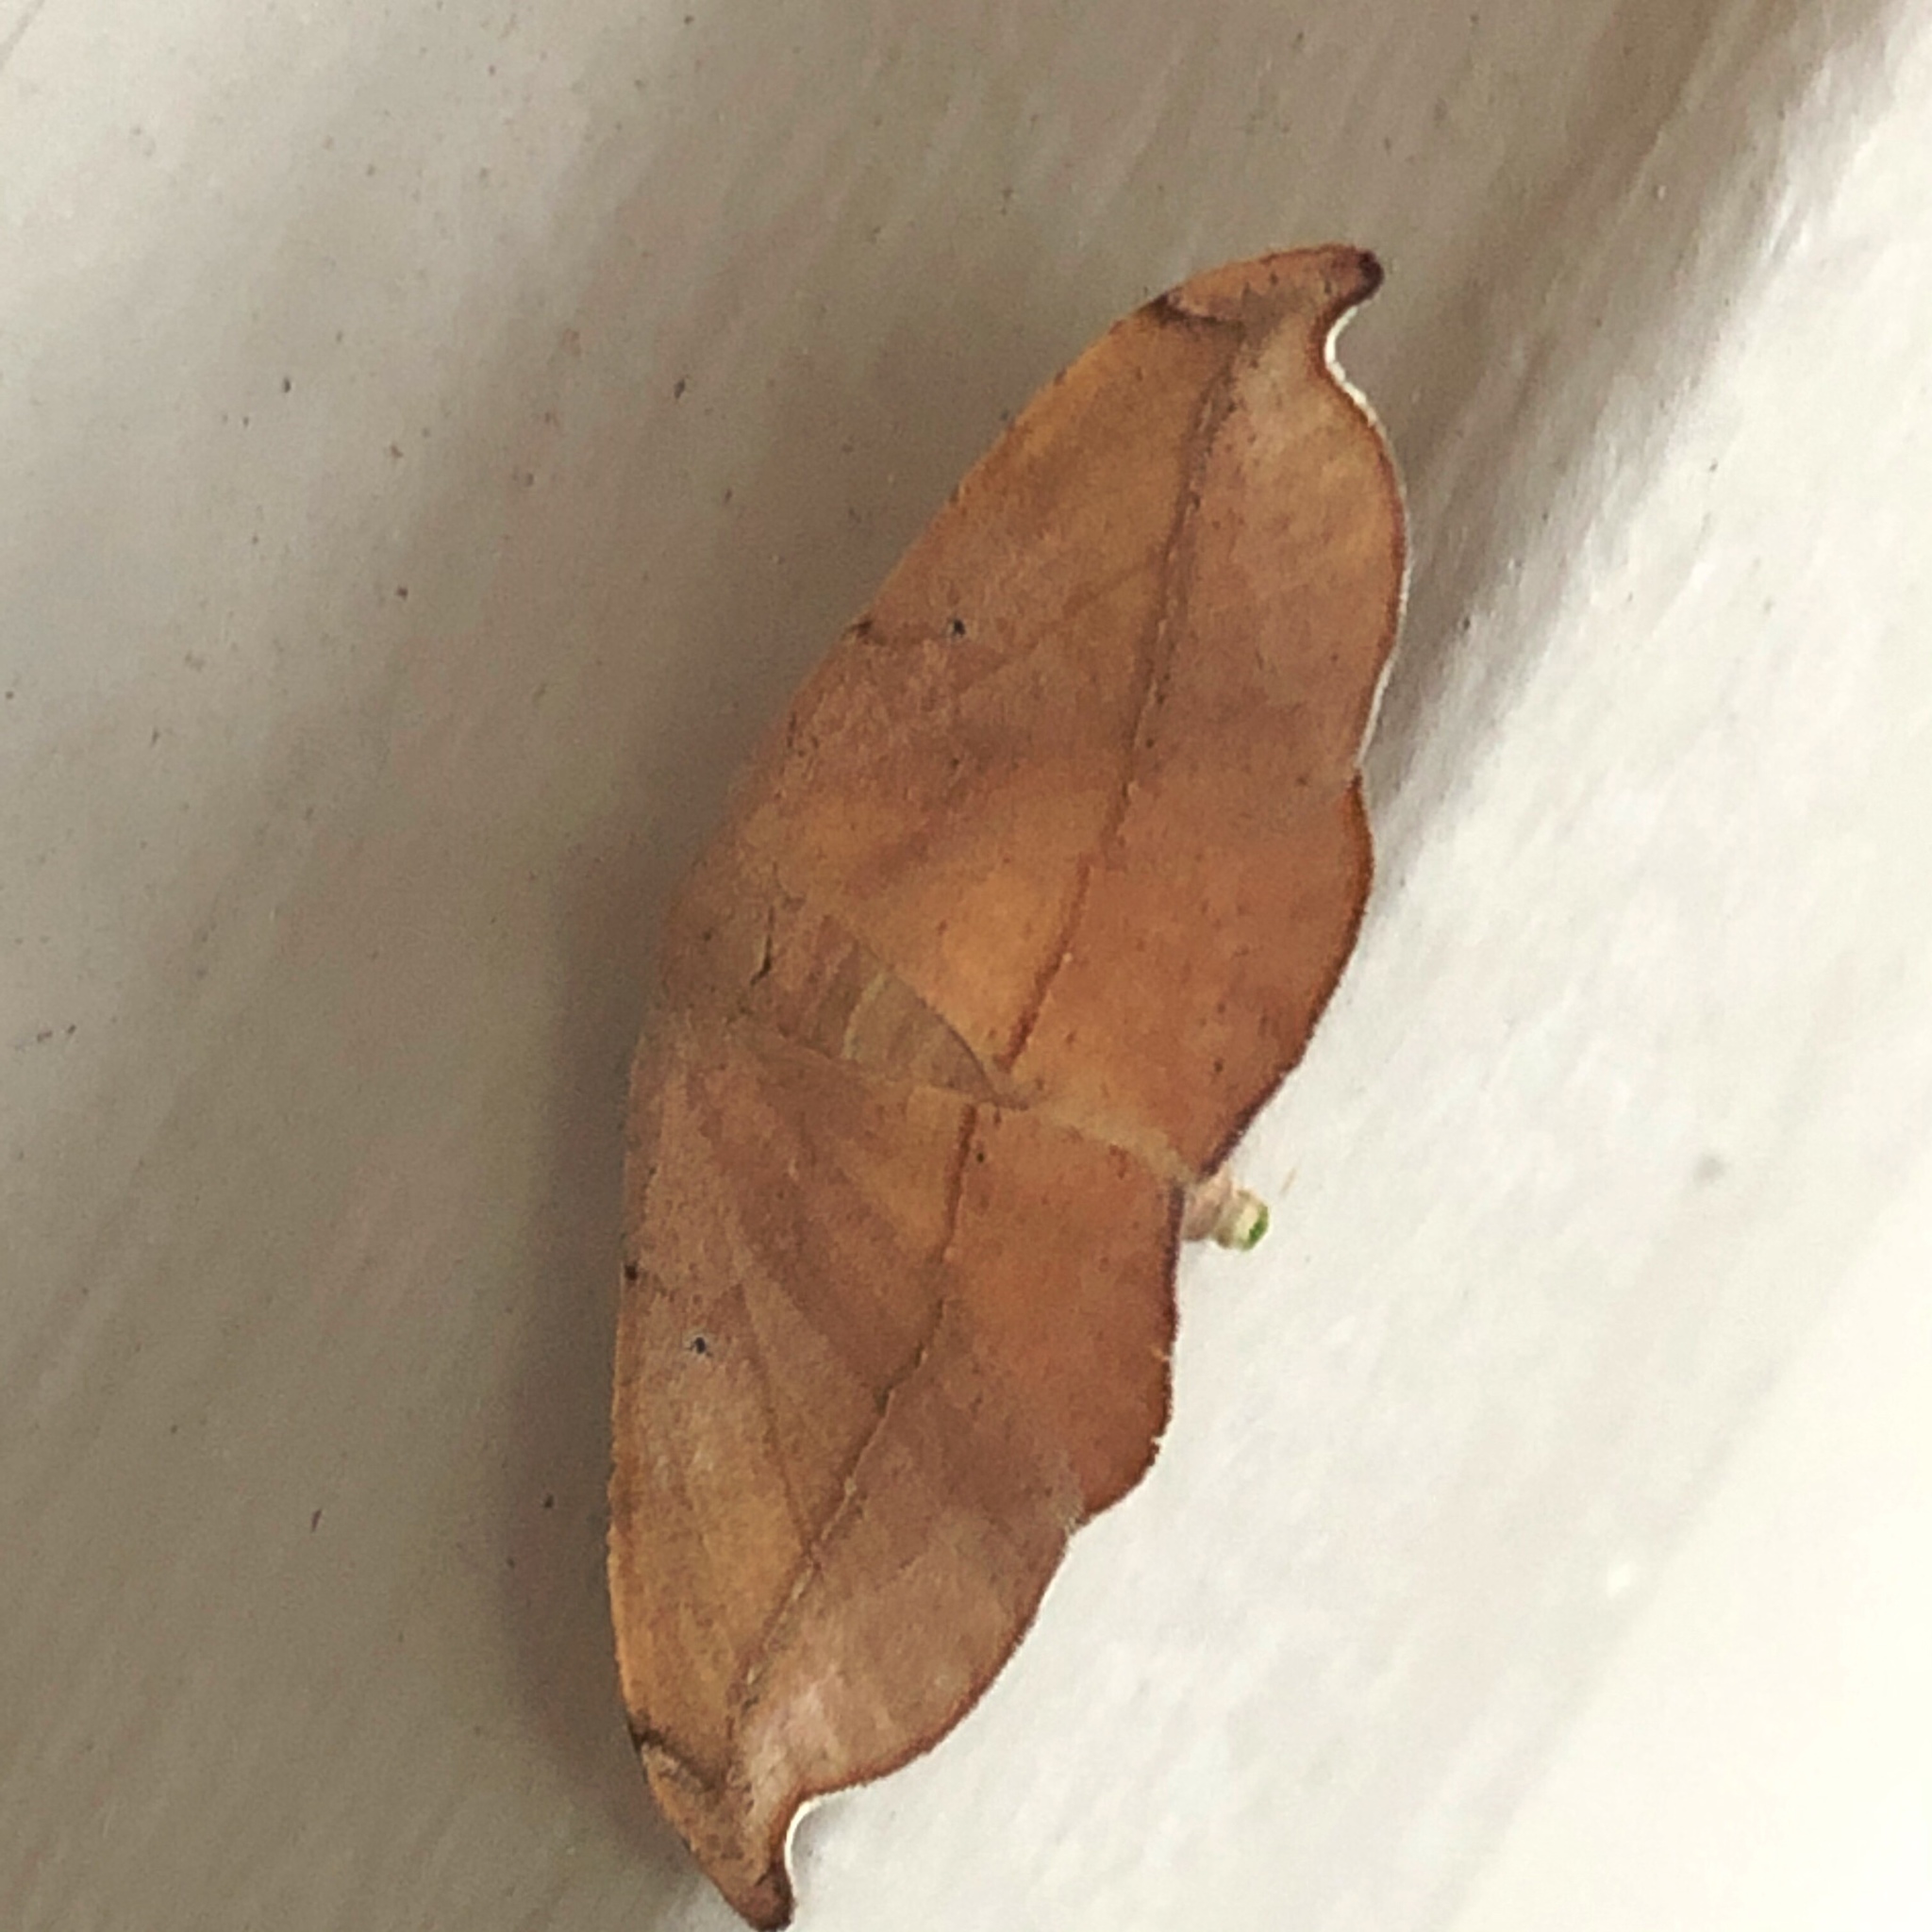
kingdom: Animalia
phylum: Arthropoda
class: Insecta
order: Lepidoptera
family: Geometridae
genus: Patalene
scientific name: Patalene olyzonaria
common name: Juniper geometer moth
